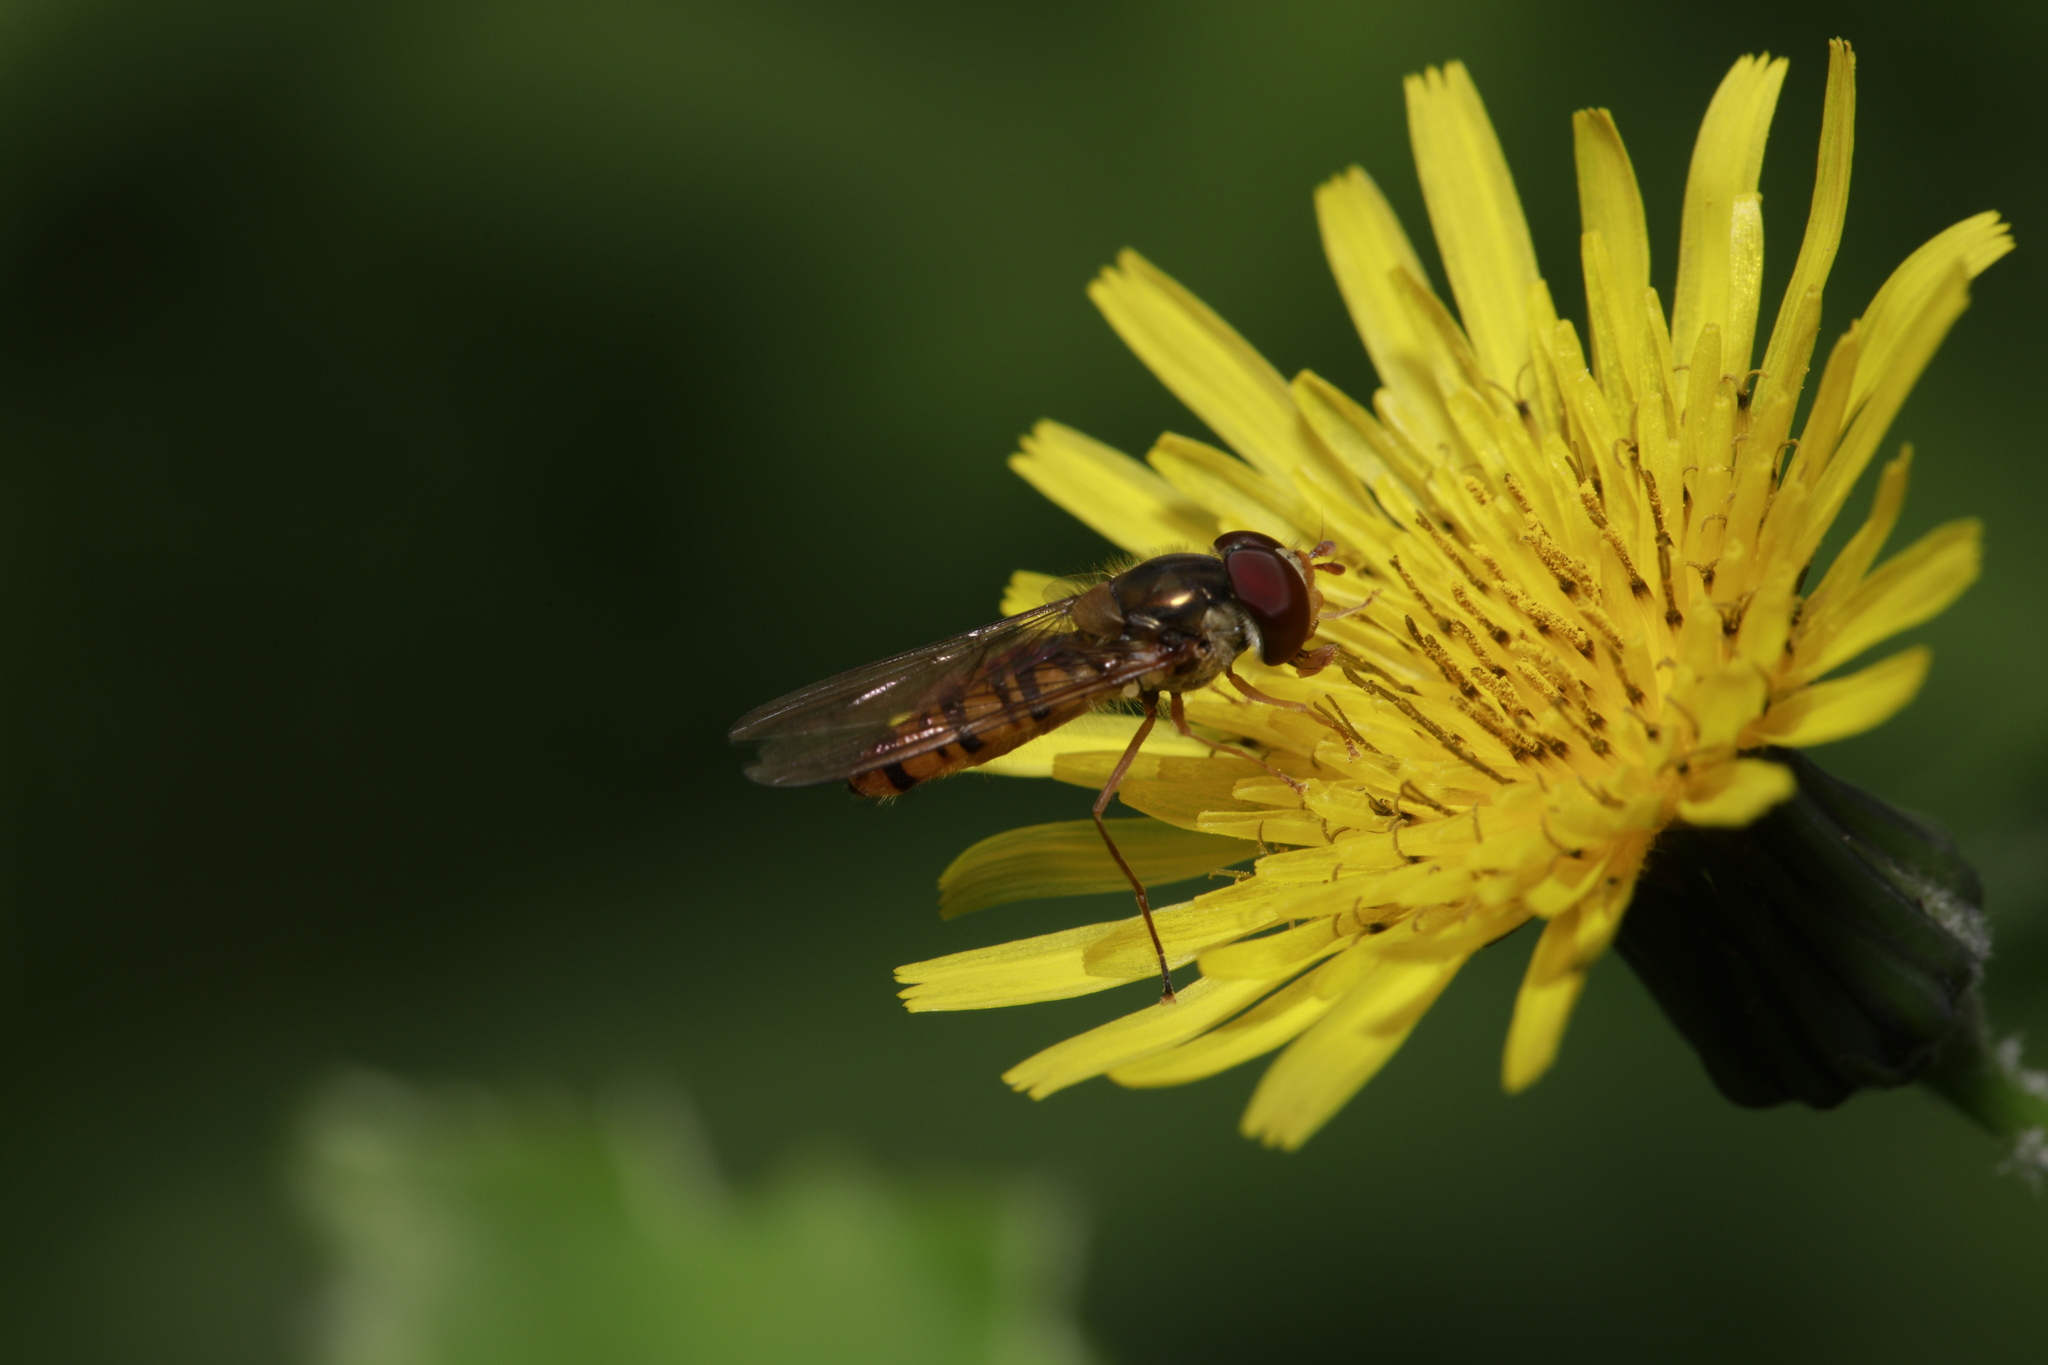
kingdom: Animalia
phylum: Arthropoda
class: Insecta
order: Diptera
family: Syrphidae
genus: Episyrphus
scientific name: Episyrphus balteatus
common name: Marmalade hoverfly
